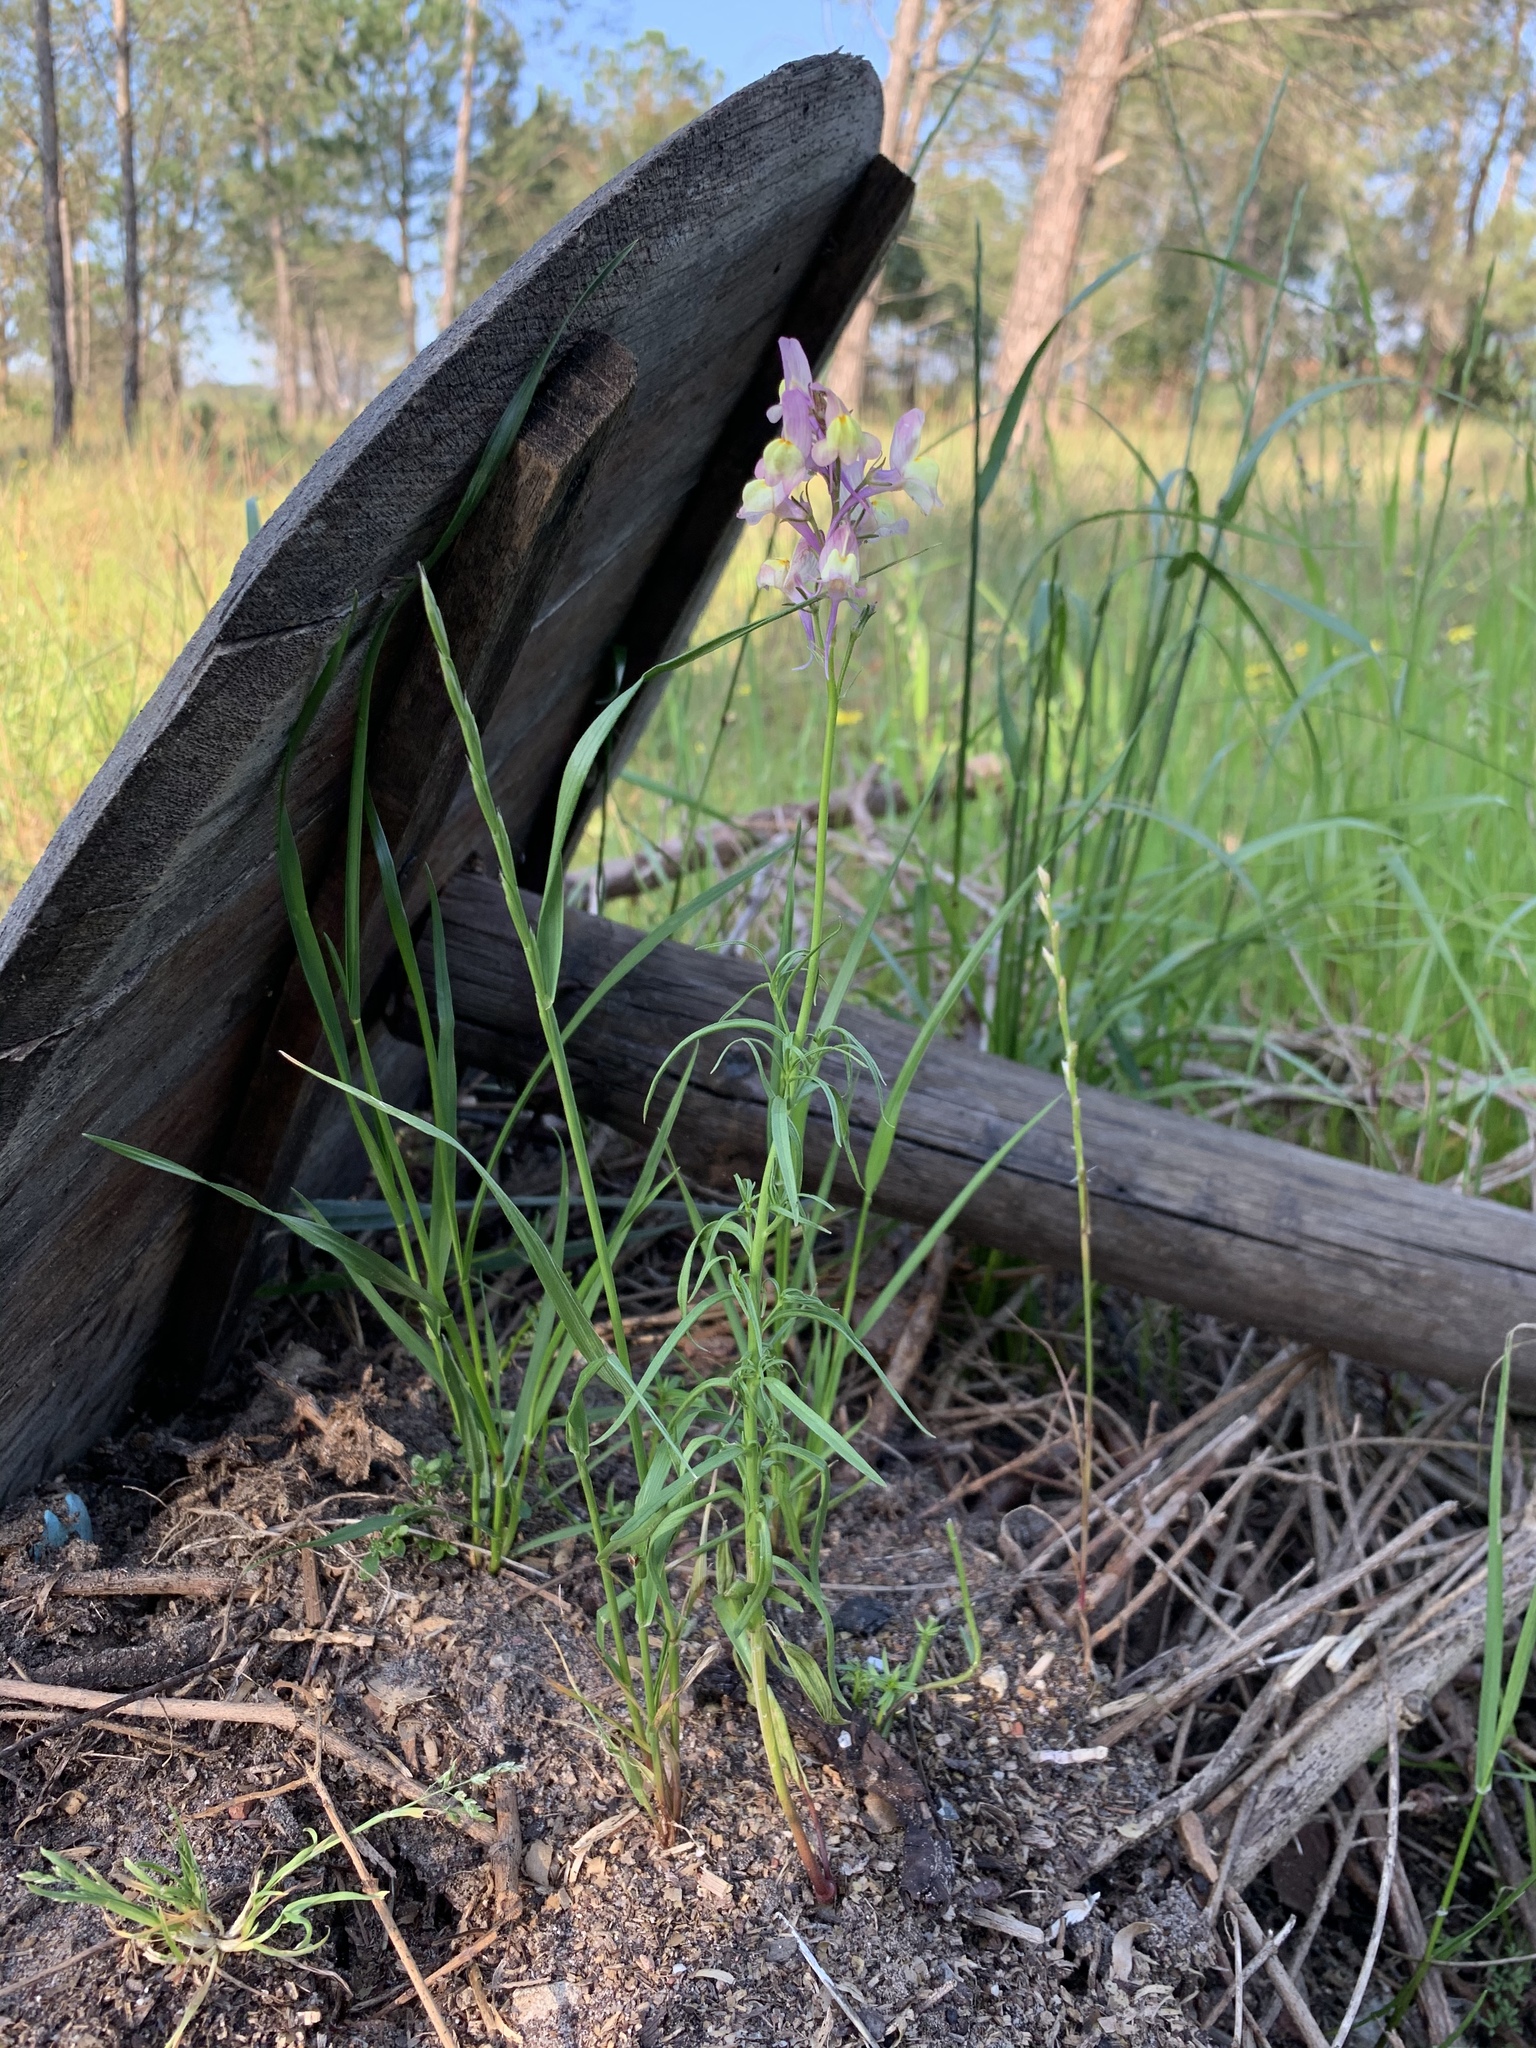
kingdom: Plantae
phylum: Tracheophyta
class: Magnoliopsida
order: Lamiales
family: Plantaginaceae
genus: Linaria
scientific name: Linaria maroccana
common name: Moroccan toadflax
